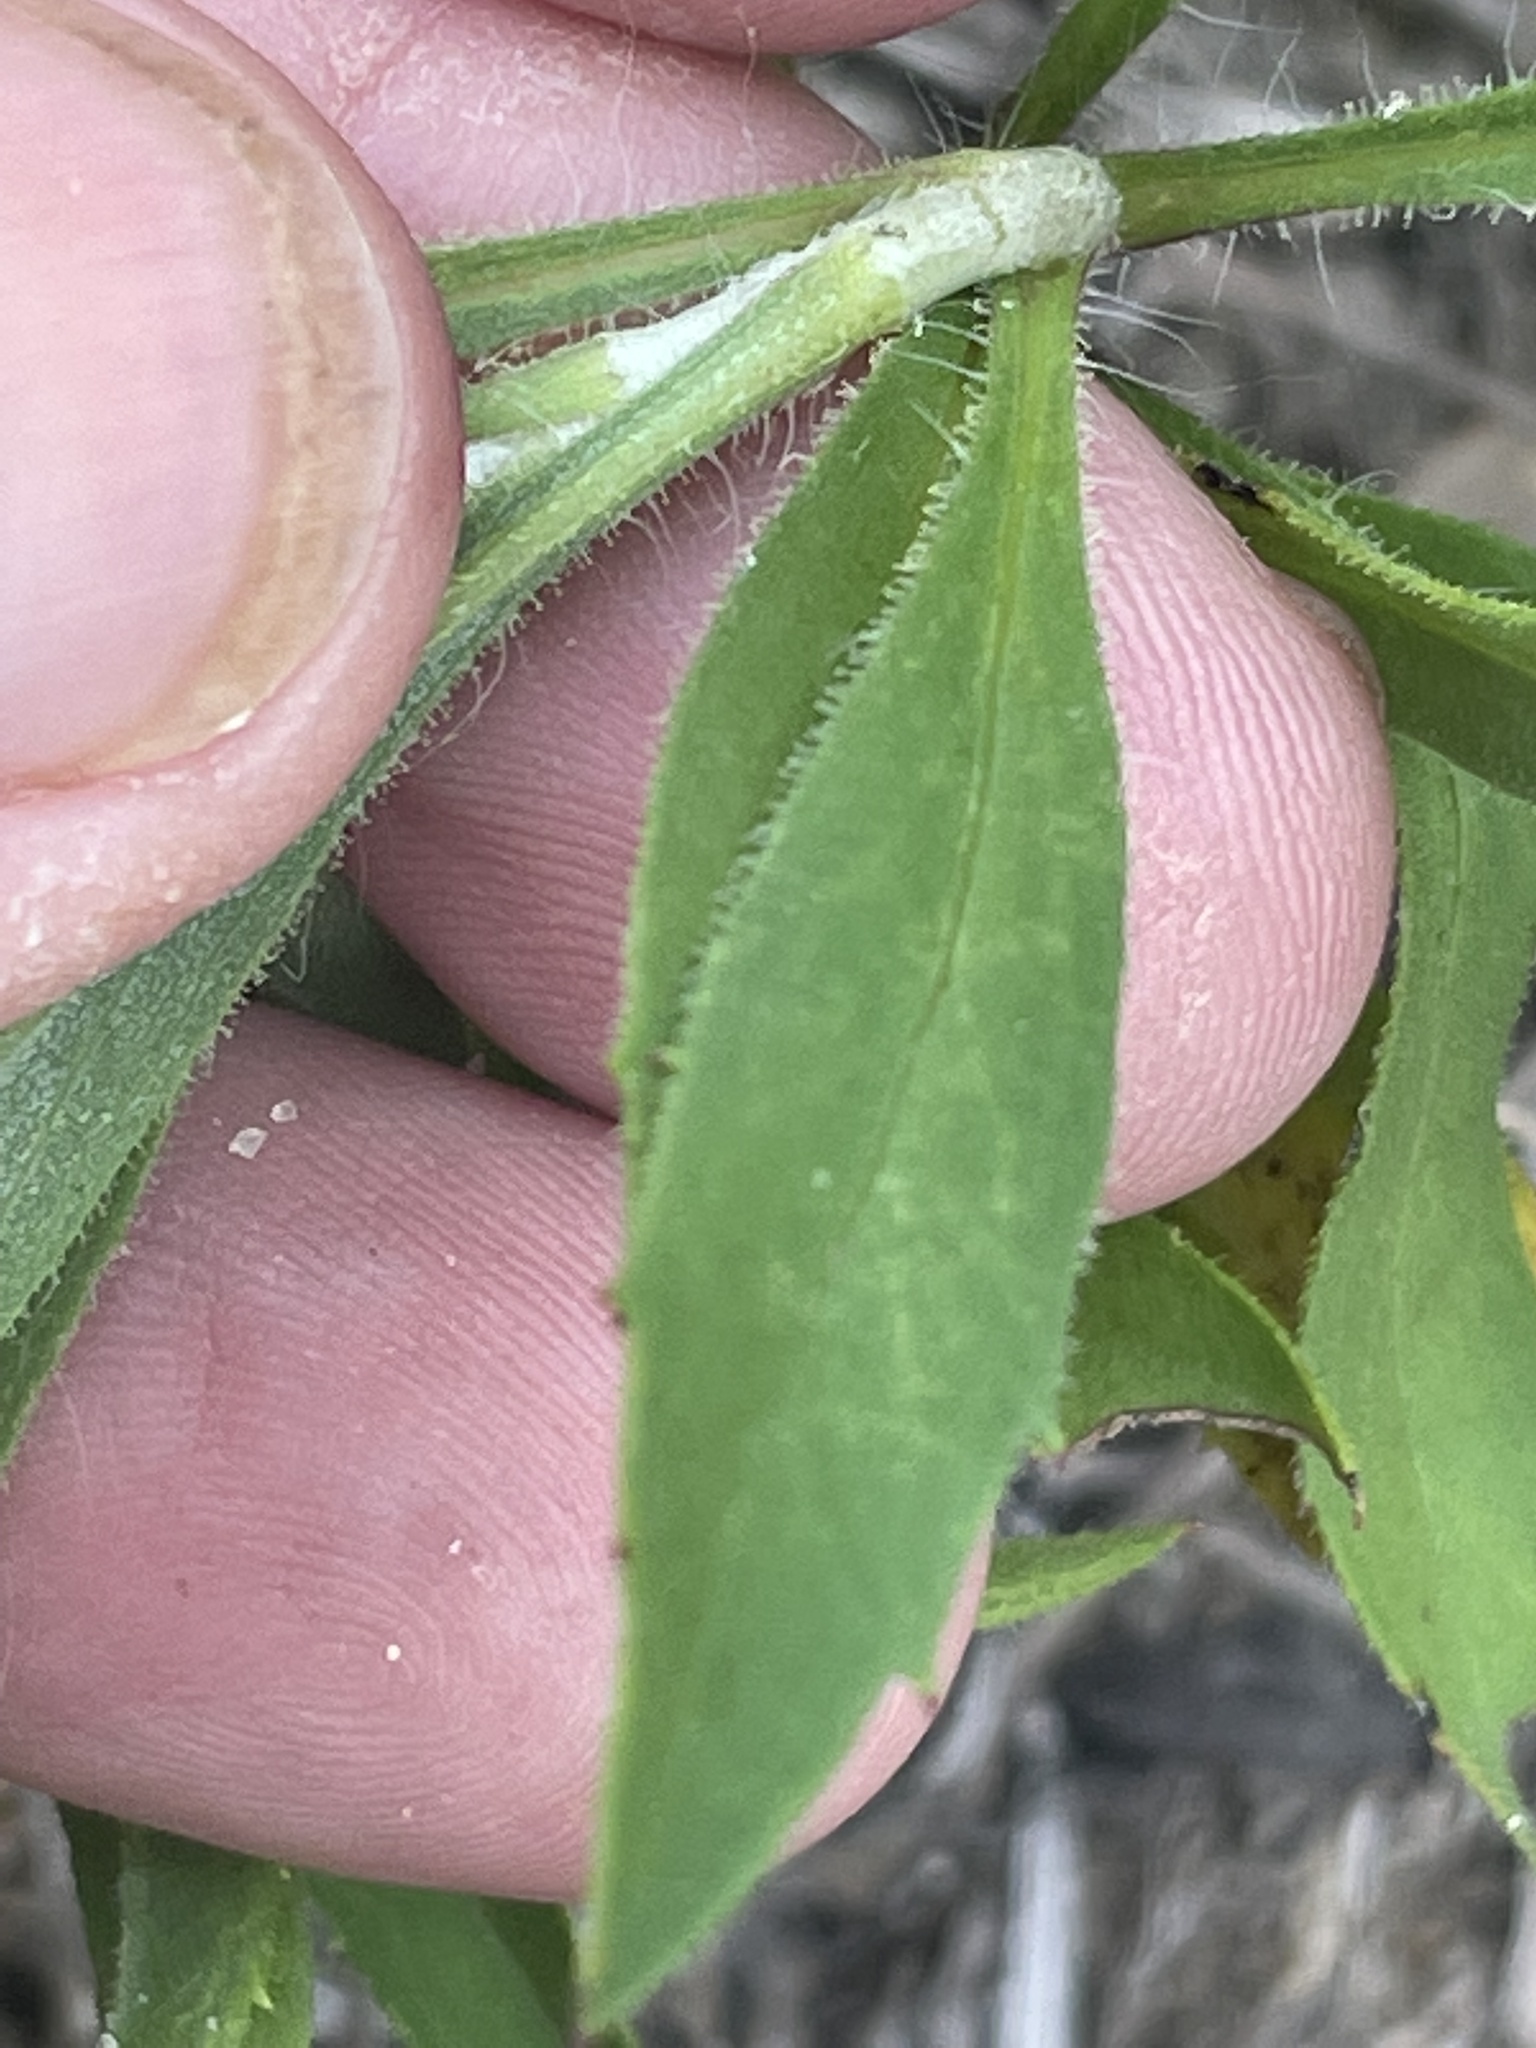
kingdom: Plantae
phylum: Tracheophyta
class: Magnoliopsida
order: Asterales
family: Asteraceae
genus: Croptilon
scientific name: Croptilon divaricatum
